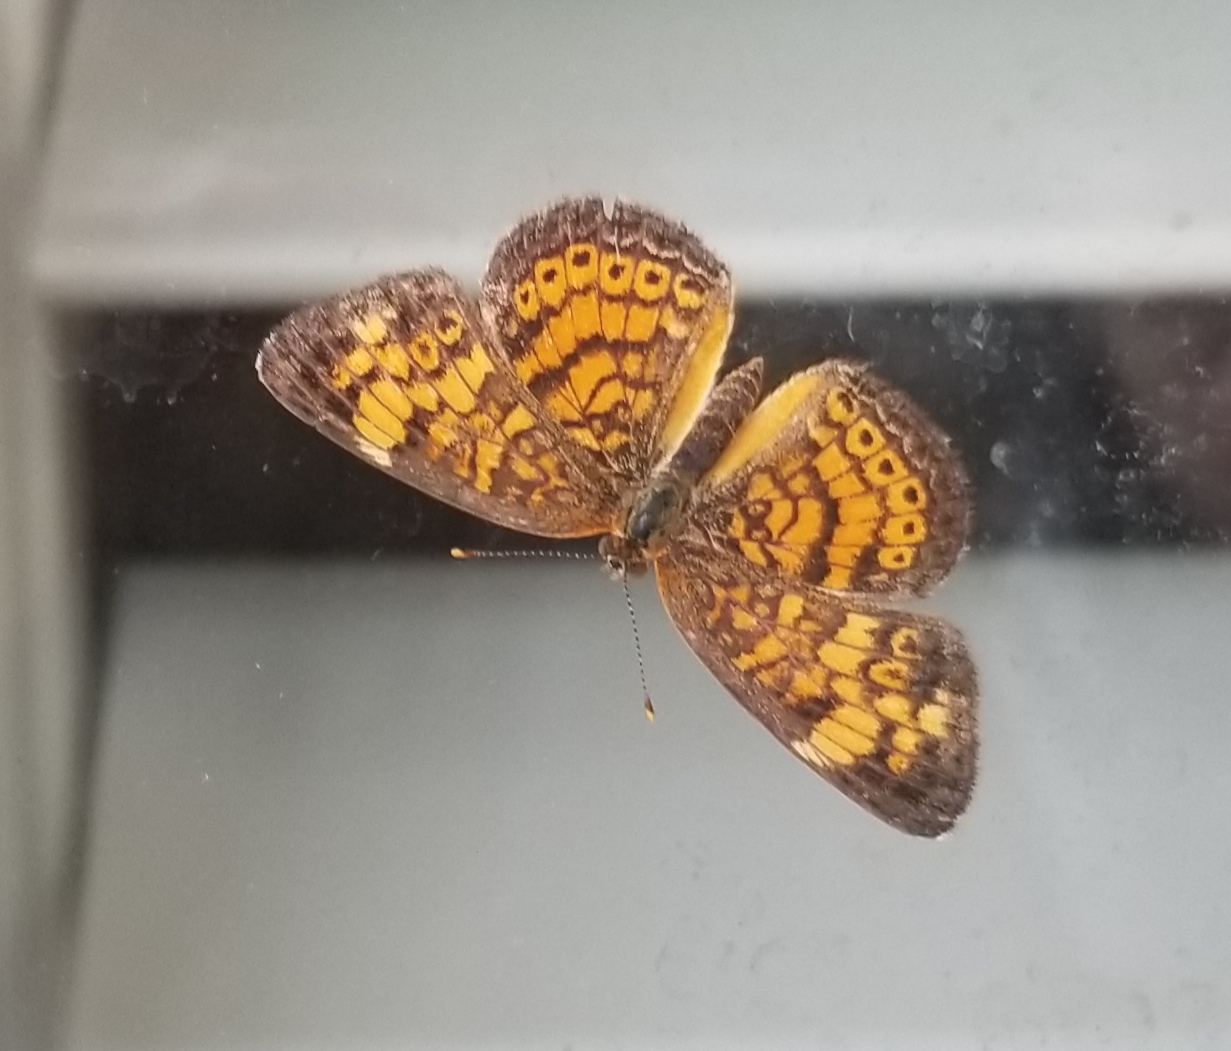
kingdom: Animalia
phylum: Arthropoda
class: Insecta
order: Lepidoptera
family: Nymphalidae
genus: Phyciodes
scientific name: Phyciodes tharos
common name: Pearl crescent
